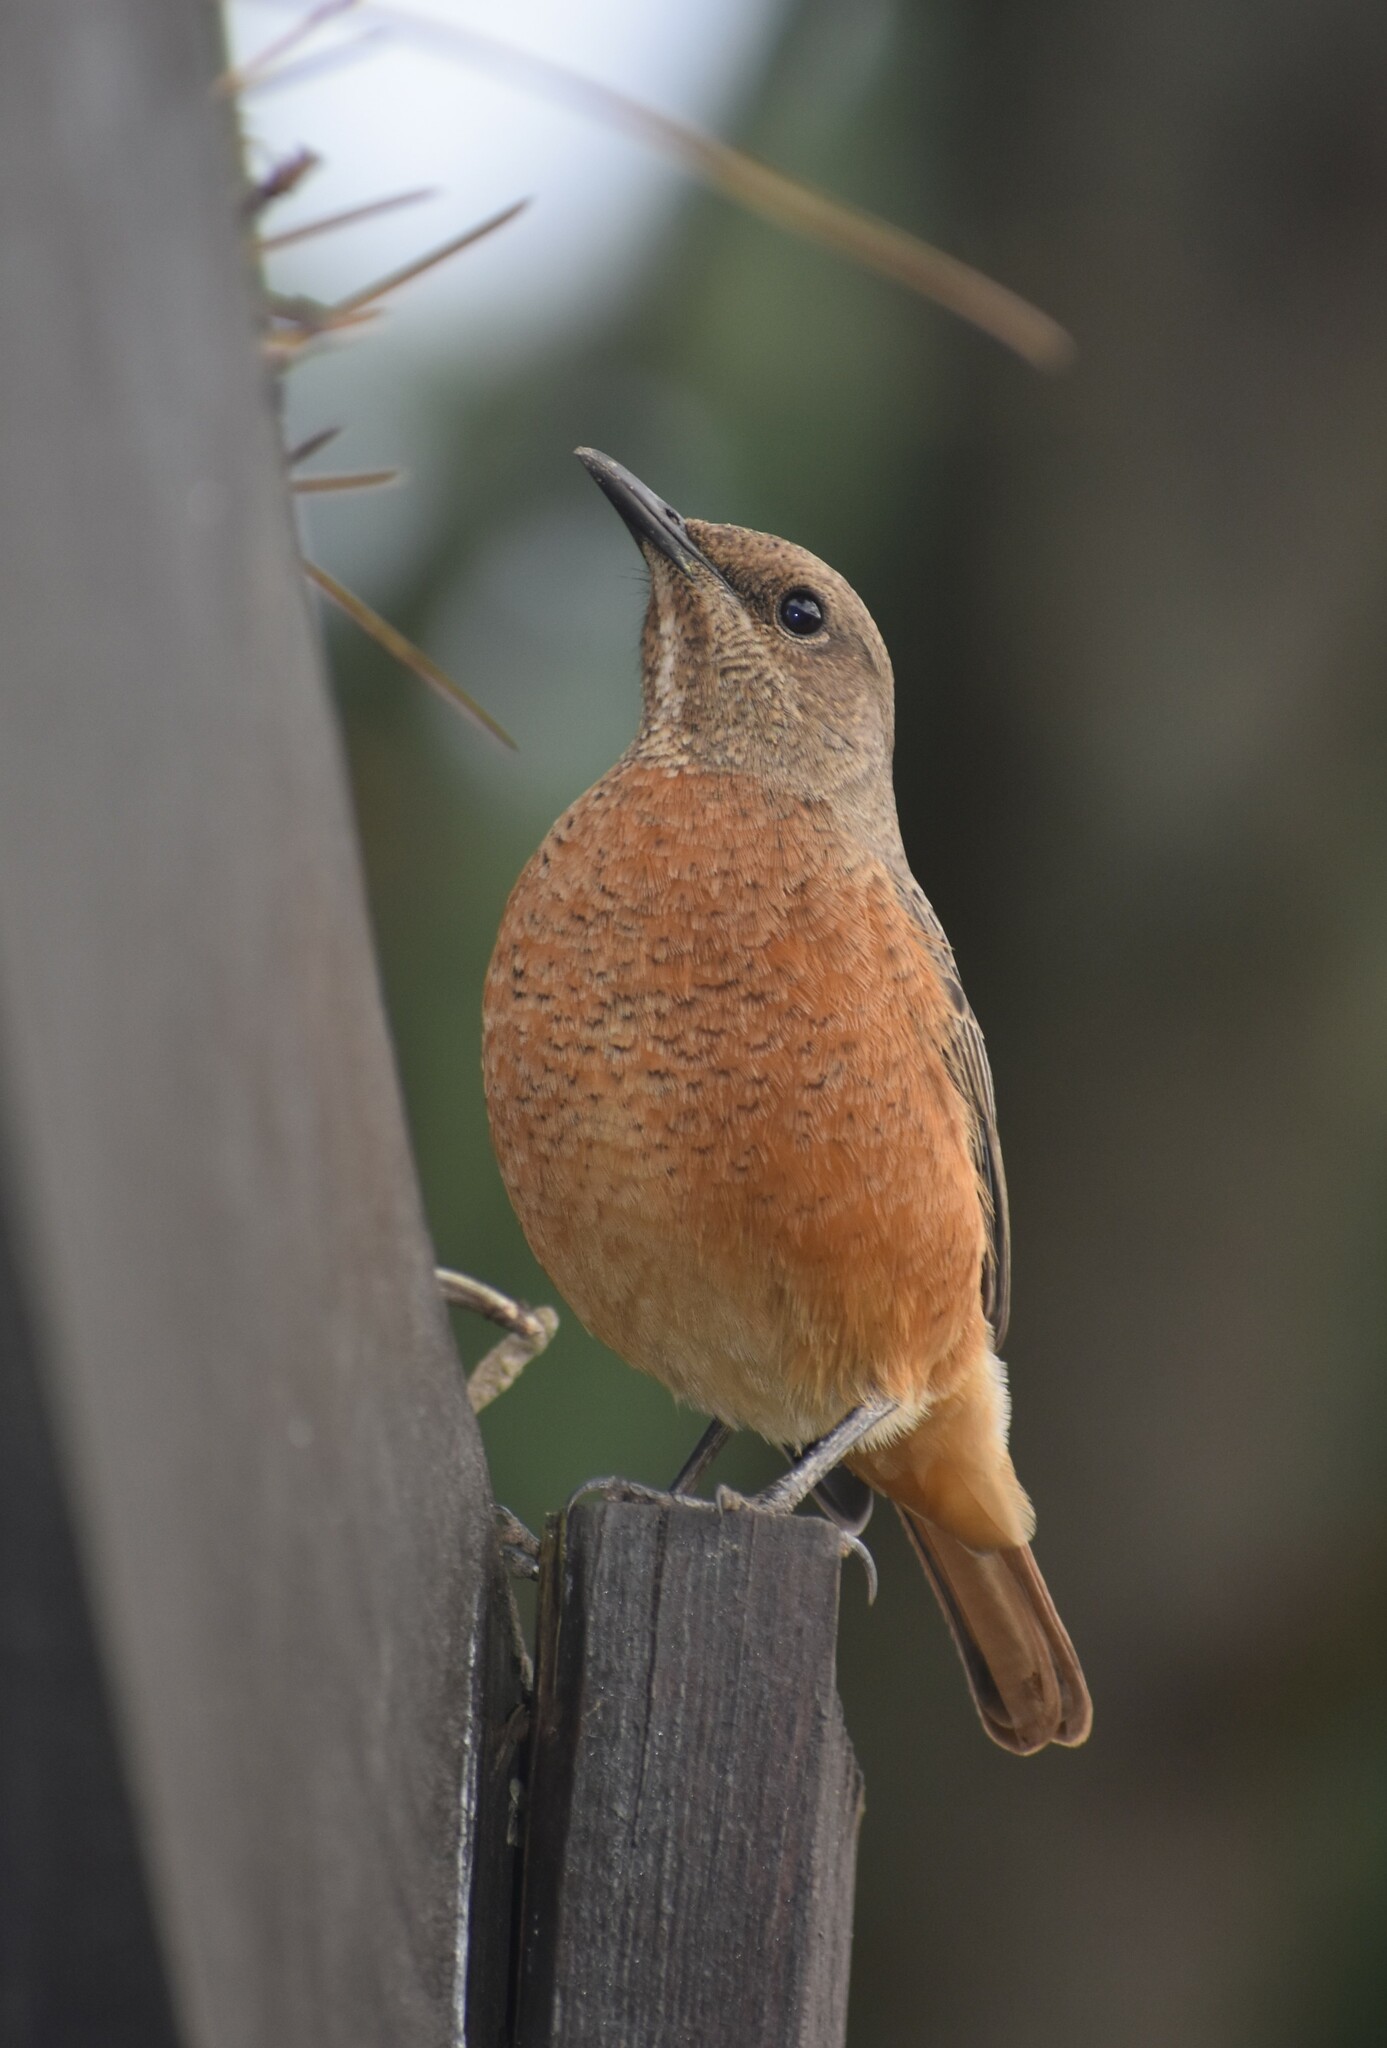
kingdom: Animalia
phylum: Chordata
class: Aves
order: Passeriformes
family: Muscicapidae
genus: Monticola
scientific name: Monticola rupestris
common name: Cape rock thrush
